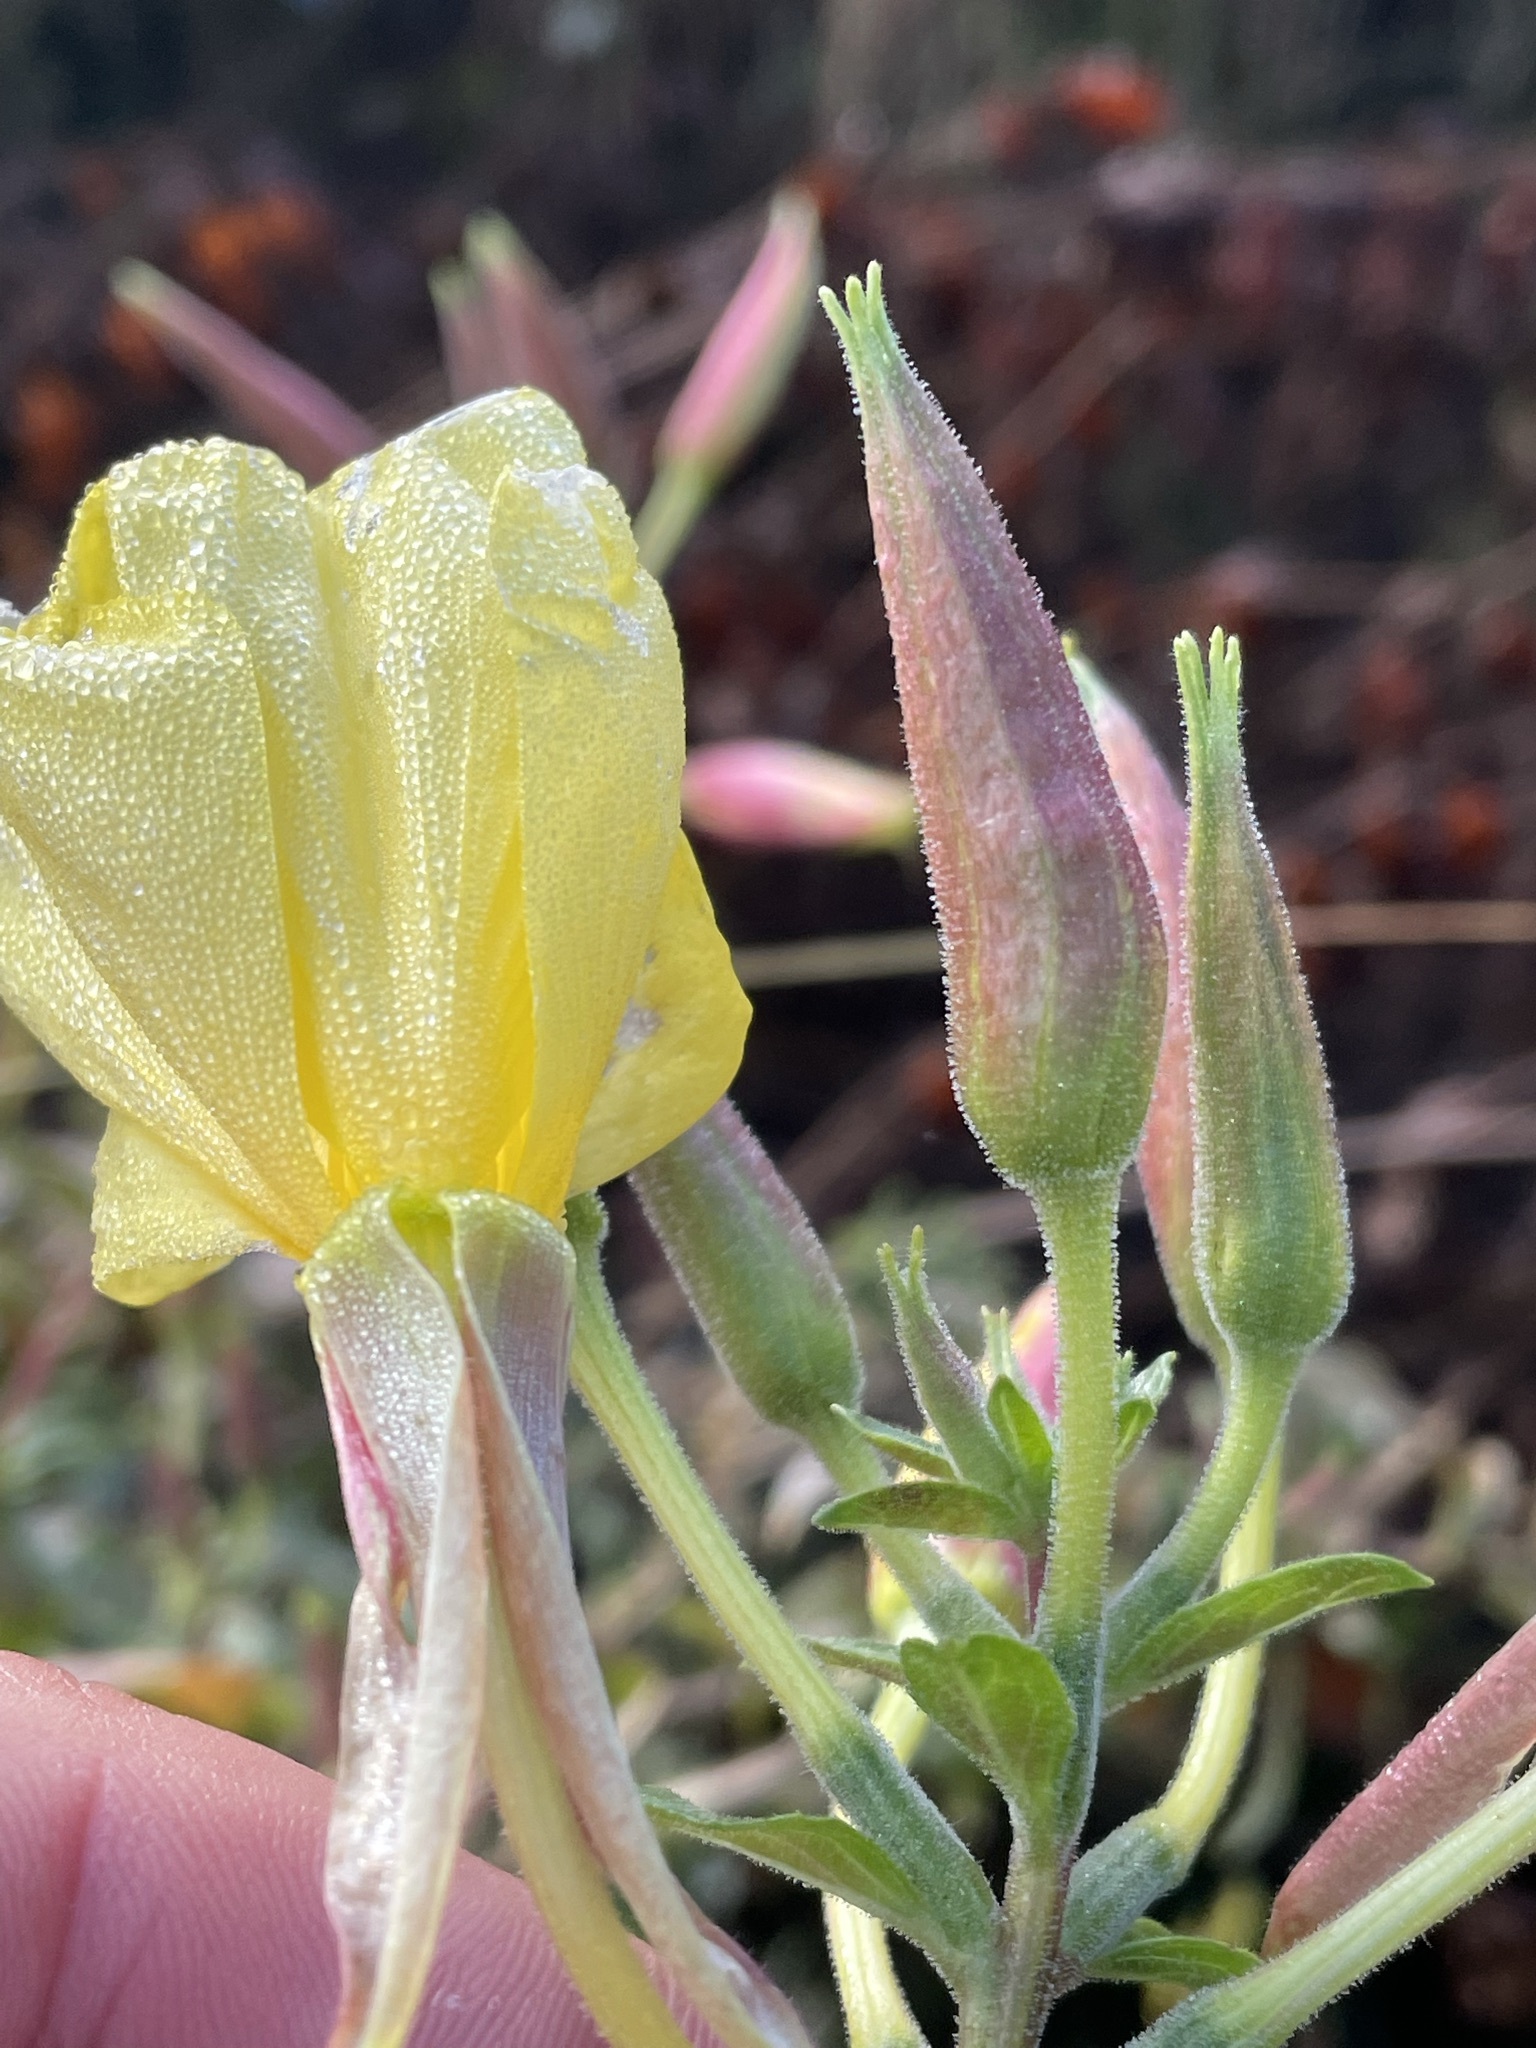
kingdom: Plantae
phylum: Tracheophyta
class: Magnoliopsida
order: Myrtales
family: Onagraceae
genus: Oenothera
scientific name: Oenothera glazioviana
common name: Large-flowered evening-primrose
